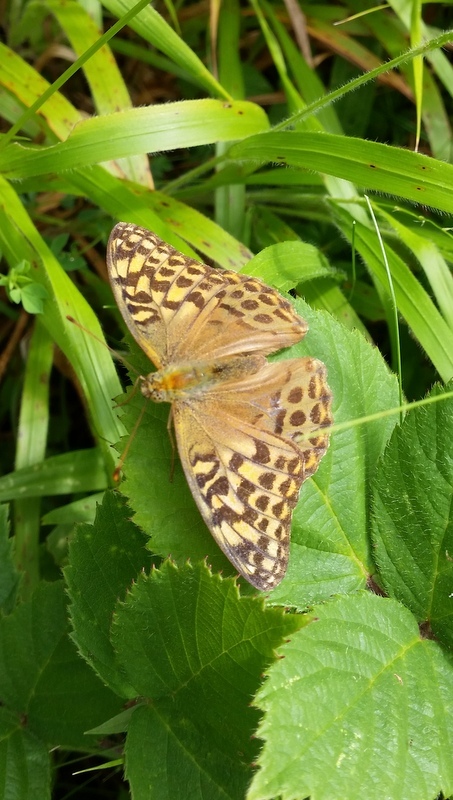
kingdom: Animalia
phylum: Arthropoda
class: Insecta
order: Lepidoptera
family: Nymphalidae
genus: Argynnis
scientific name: Argynnis paphia
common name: Silver-washed fritillary
